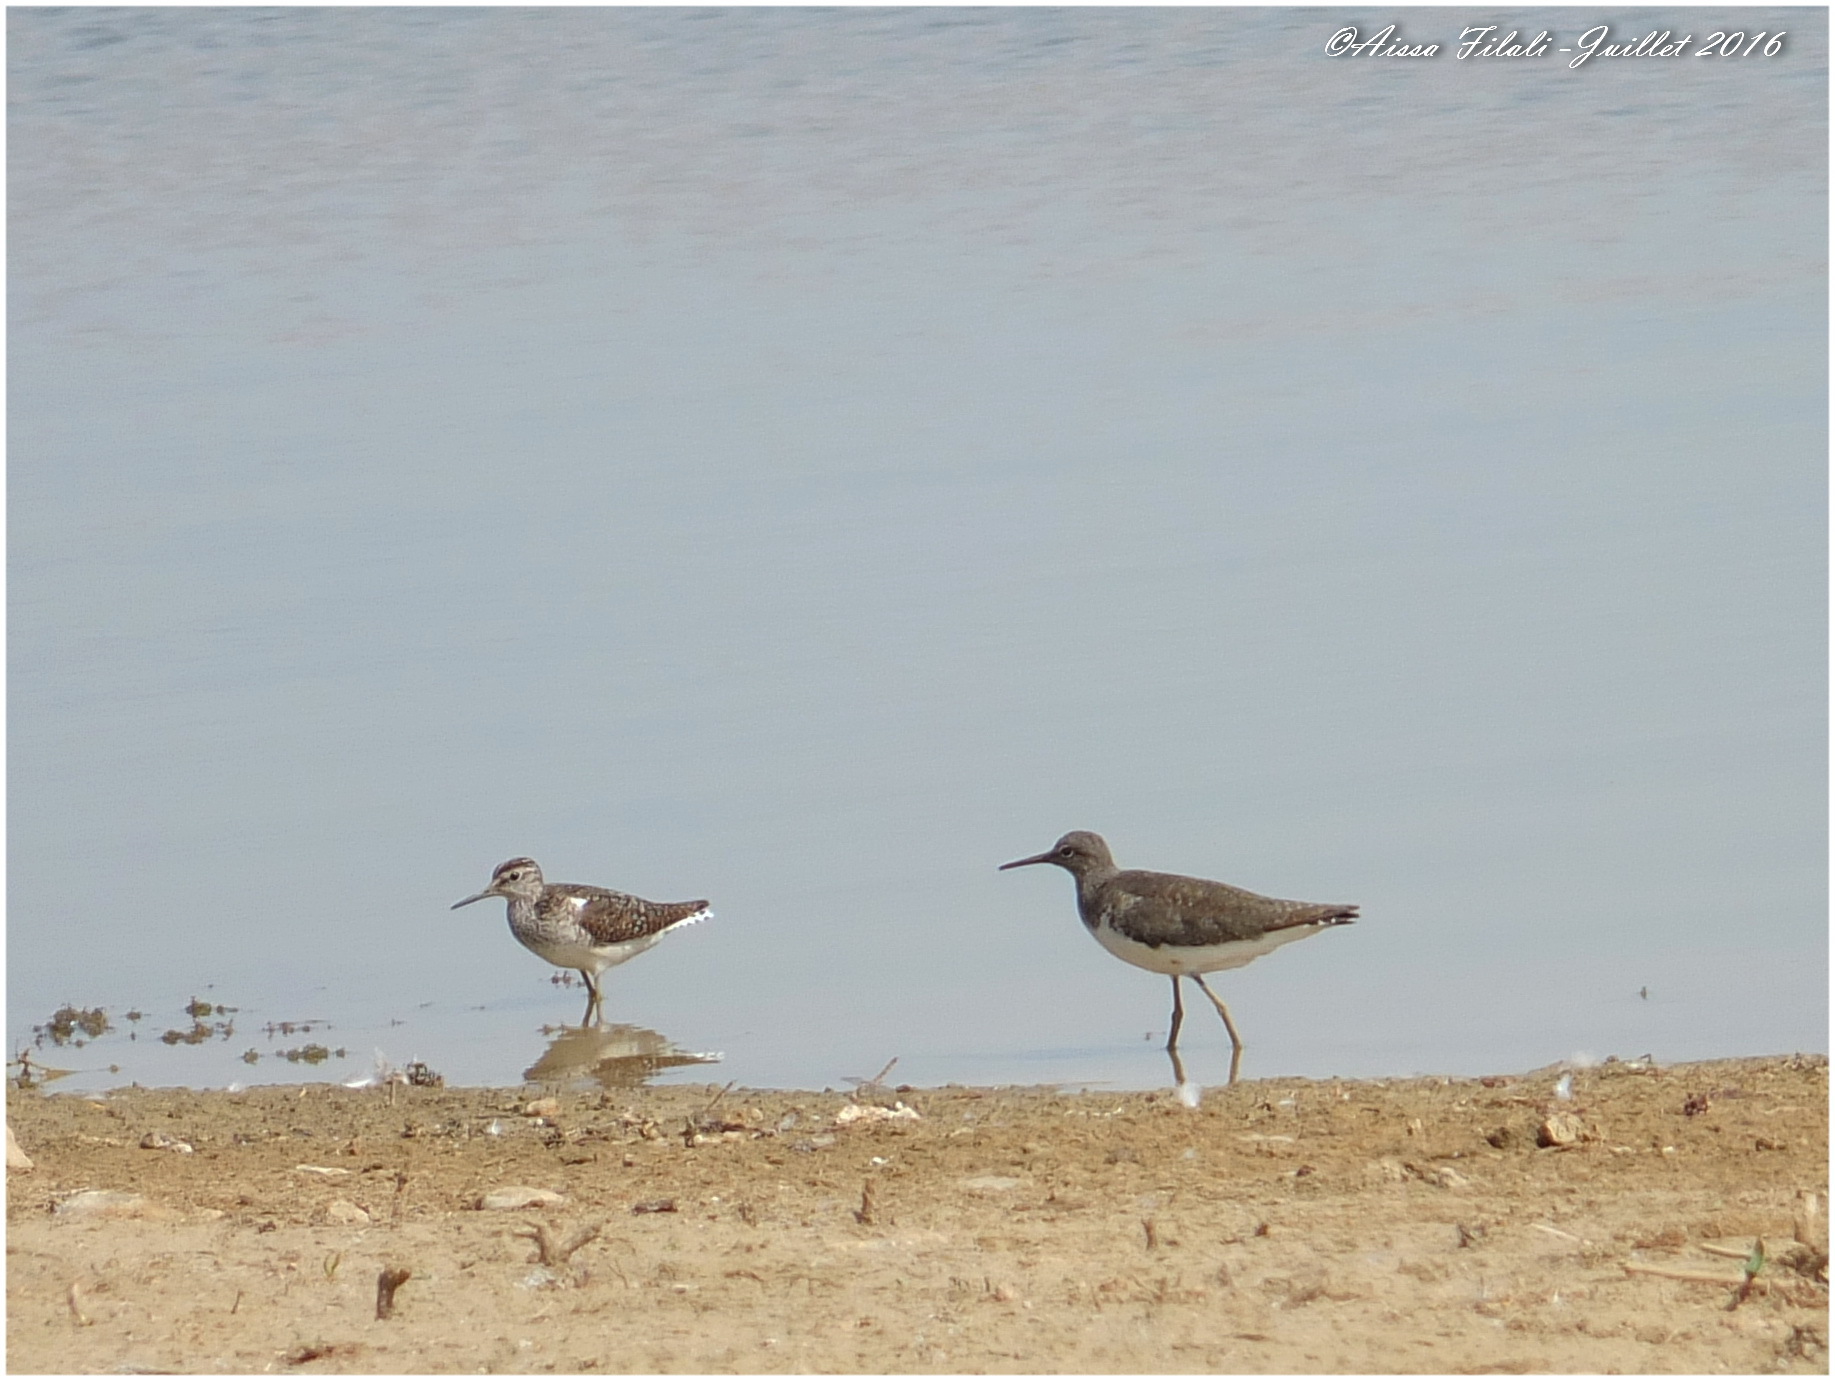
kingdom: Animalia
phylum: Chordata
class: Aves
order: Charadriiformes
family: Scolopacidae
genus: Tringa
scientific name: Tringa ochropus
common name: Green sandpiper
